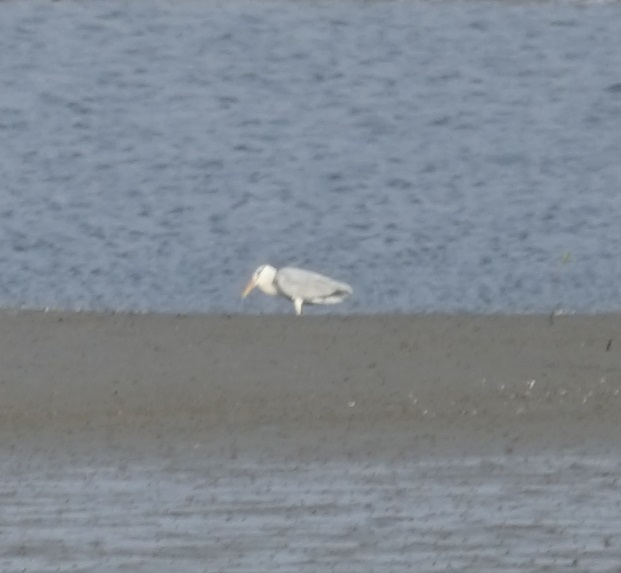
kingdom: Animalia
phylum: Chordata
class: Aves
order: Pelecaniformes
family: Ardeidae
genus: Ardea
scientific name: Ardea cinerea
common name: Grey heron
